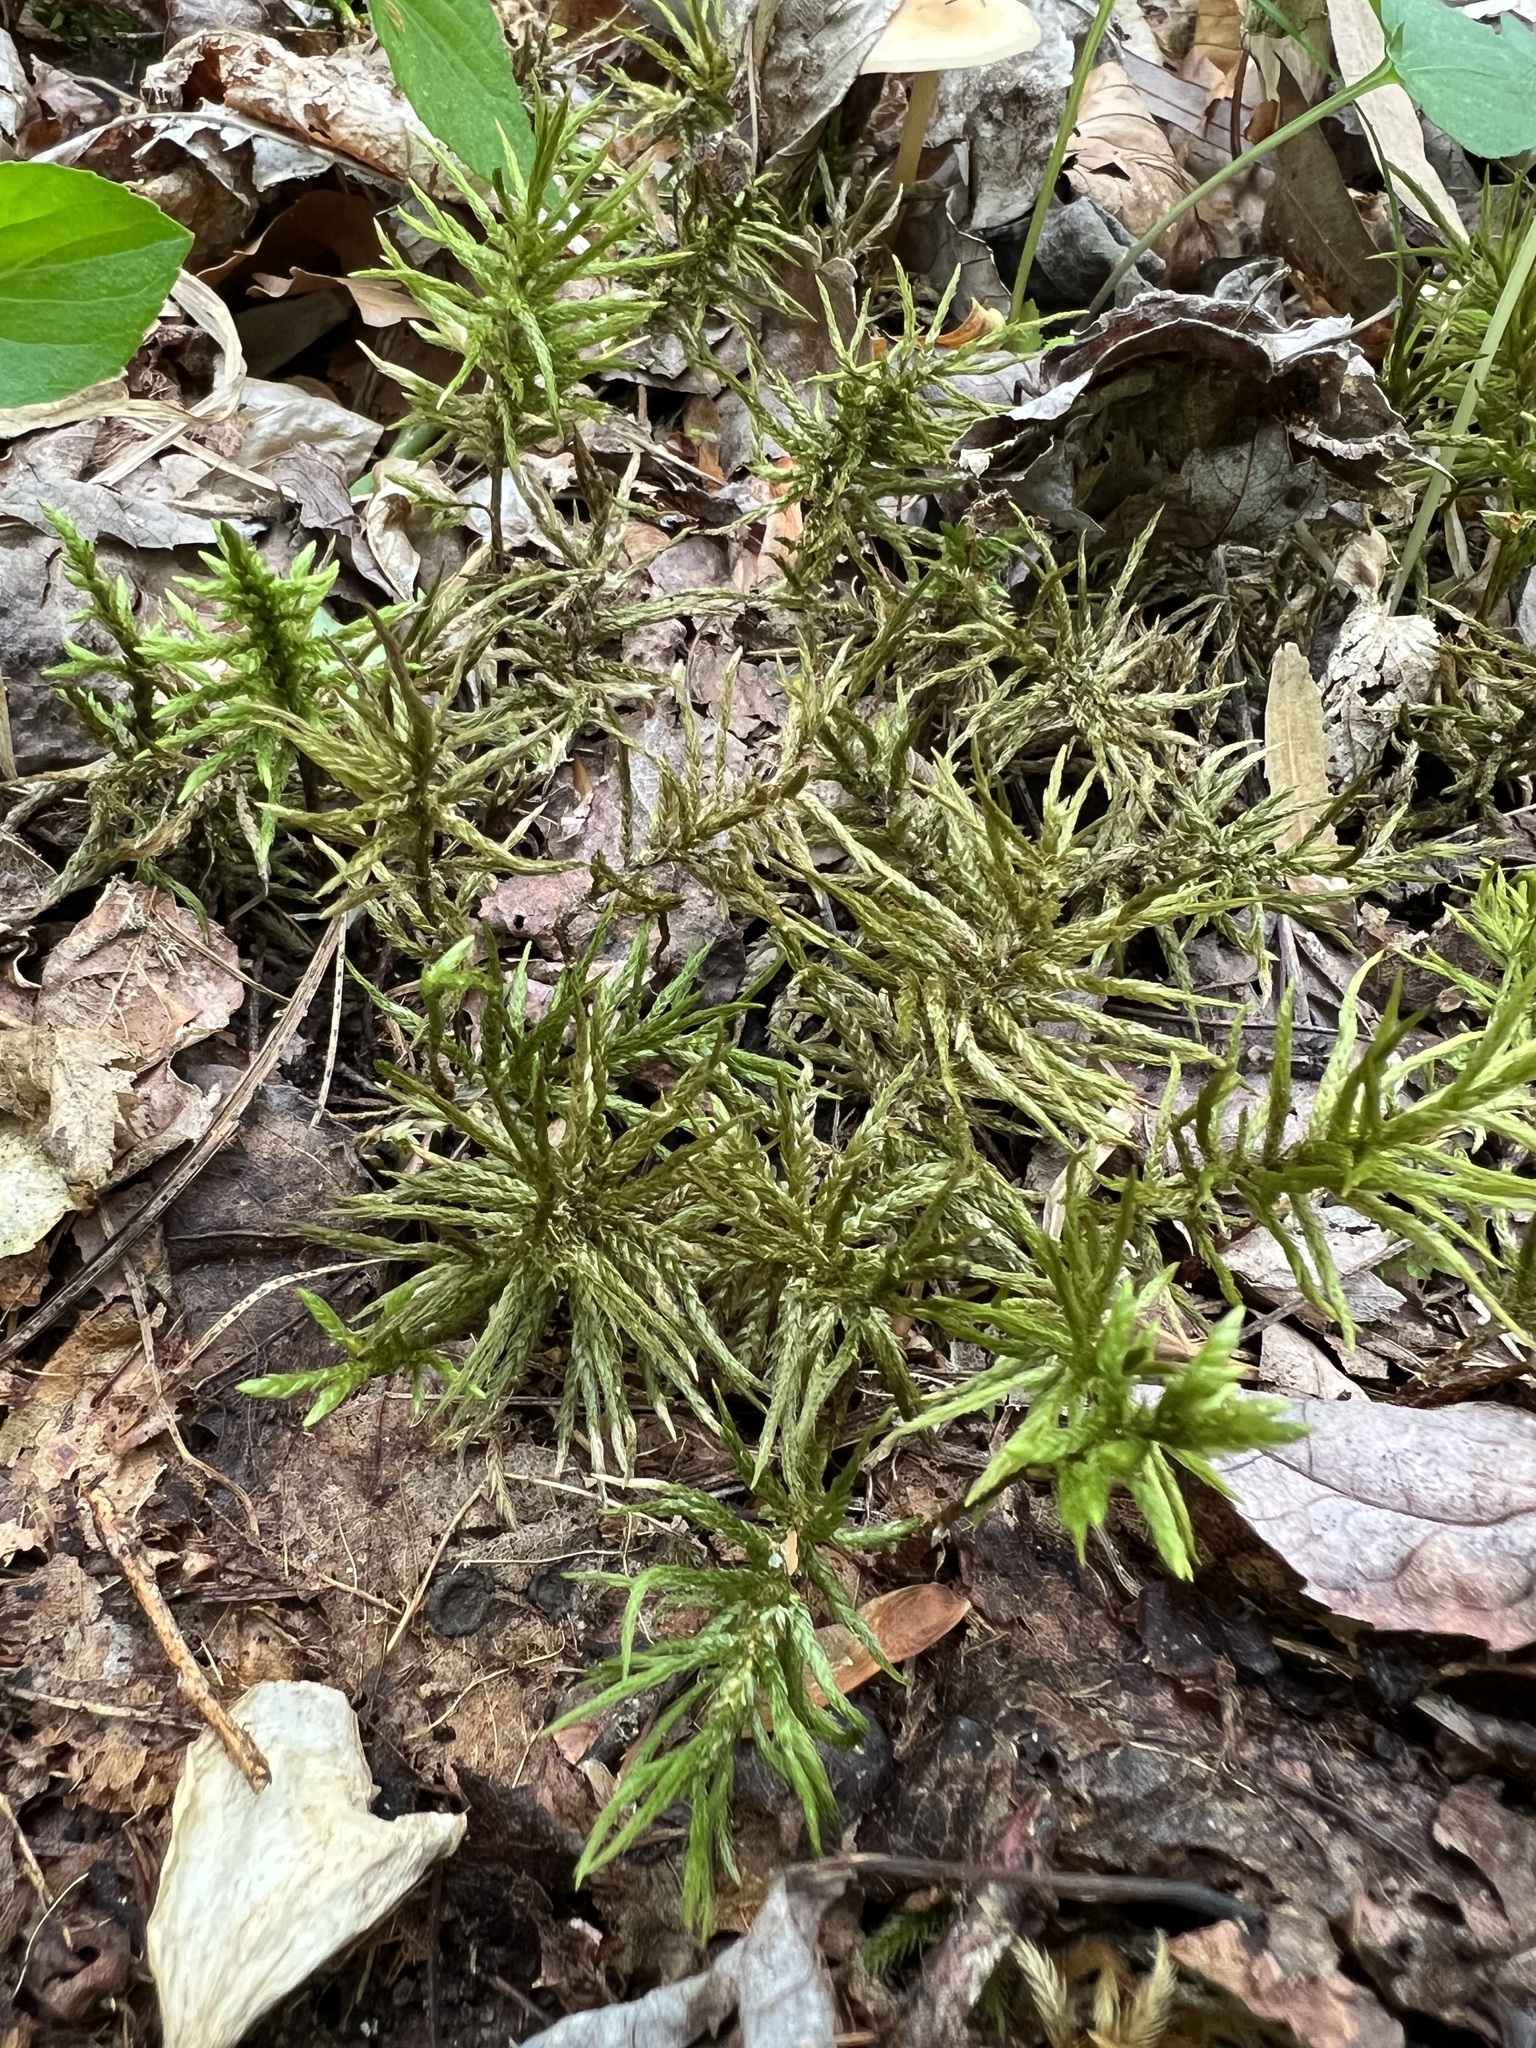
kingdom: Plantae
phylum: Bryophyta
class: Bryopsida
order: Hypnales
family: Climaciaceae
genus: Climacium
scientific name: Climacium americanum
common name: American tree moss
